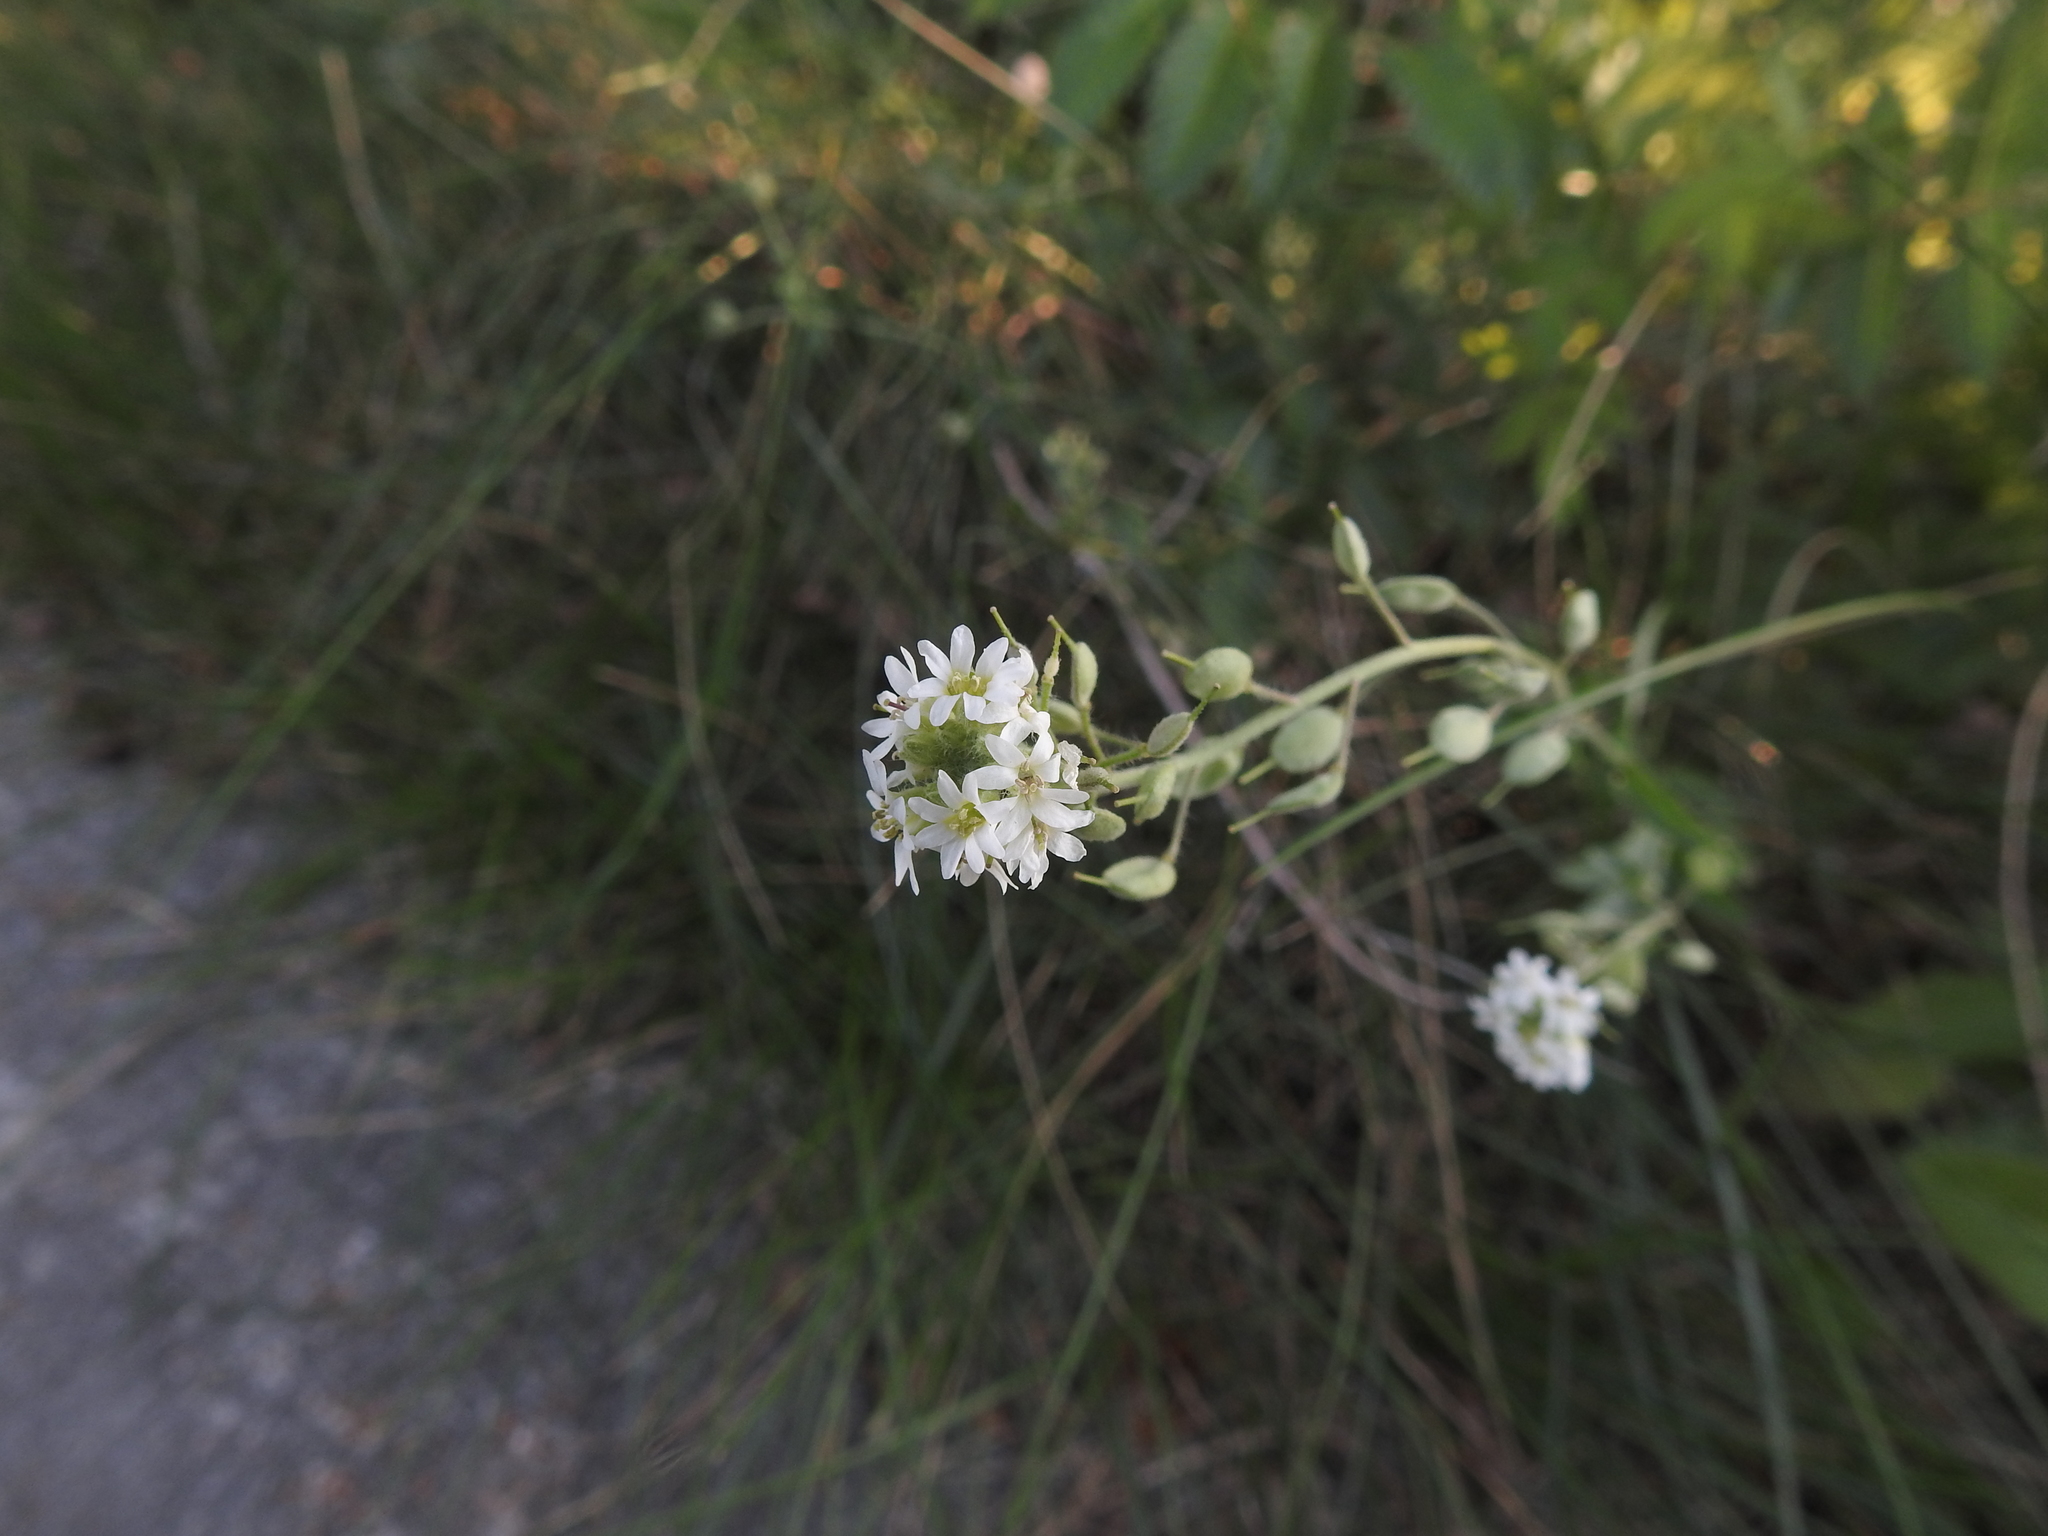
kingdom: Plantae
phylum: Tracheophyta
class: Magnoliopsida
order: Brassicales
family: Brassicaceae
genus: Berteroa
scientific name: Berteroa incana
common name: Hoary alison
